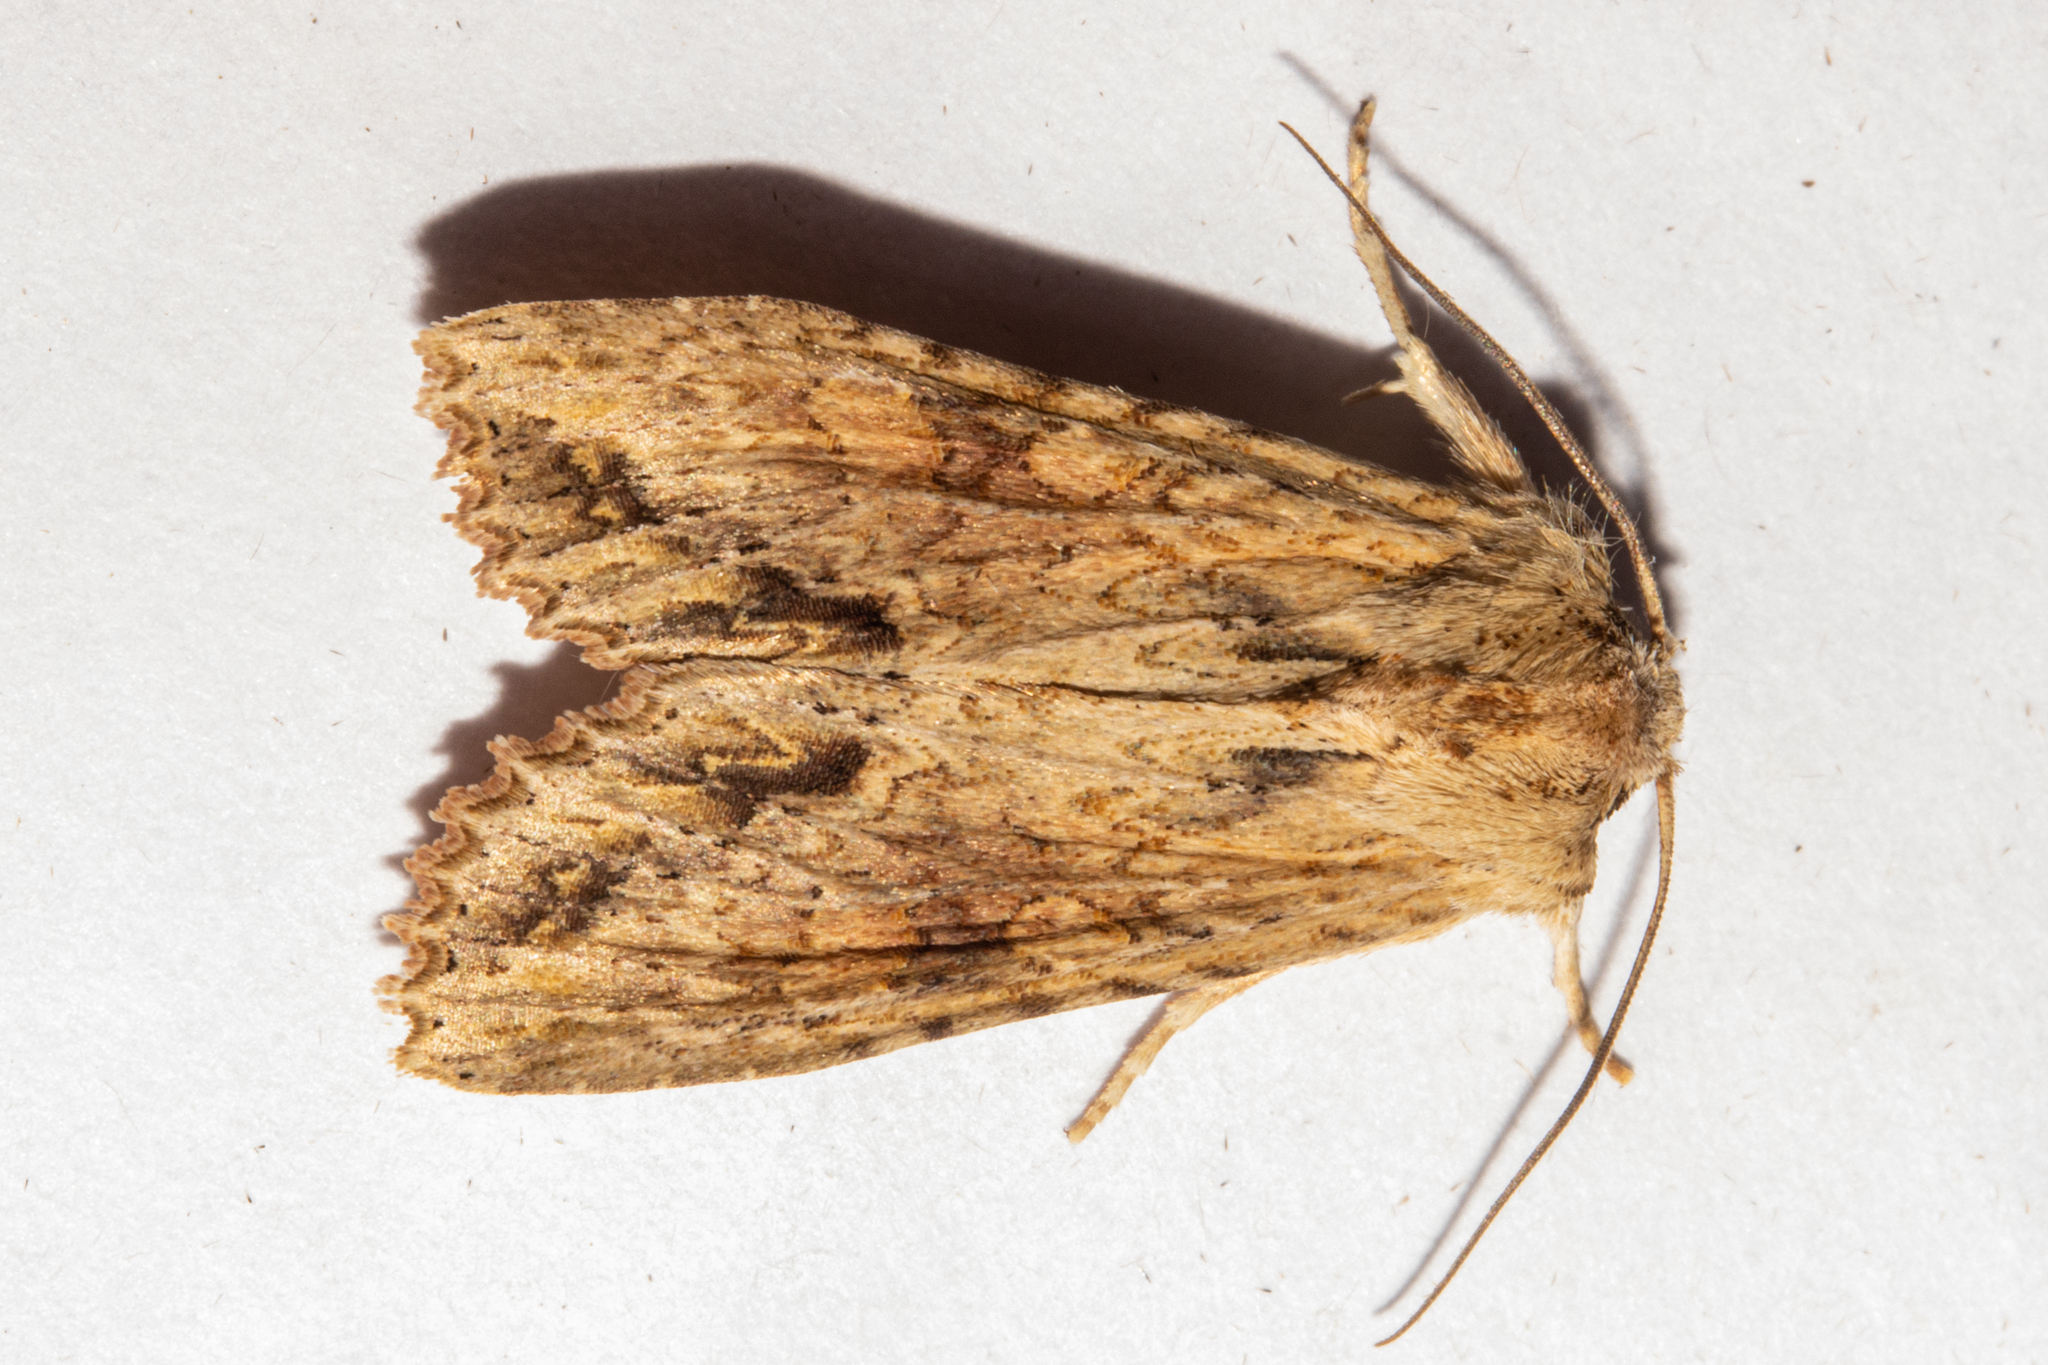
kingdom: Animalia
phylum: Arthropoda
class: Insecta
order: Lepidoptera
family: Noctuidae
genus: Ichneutica
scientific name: Ichneutica mollis
